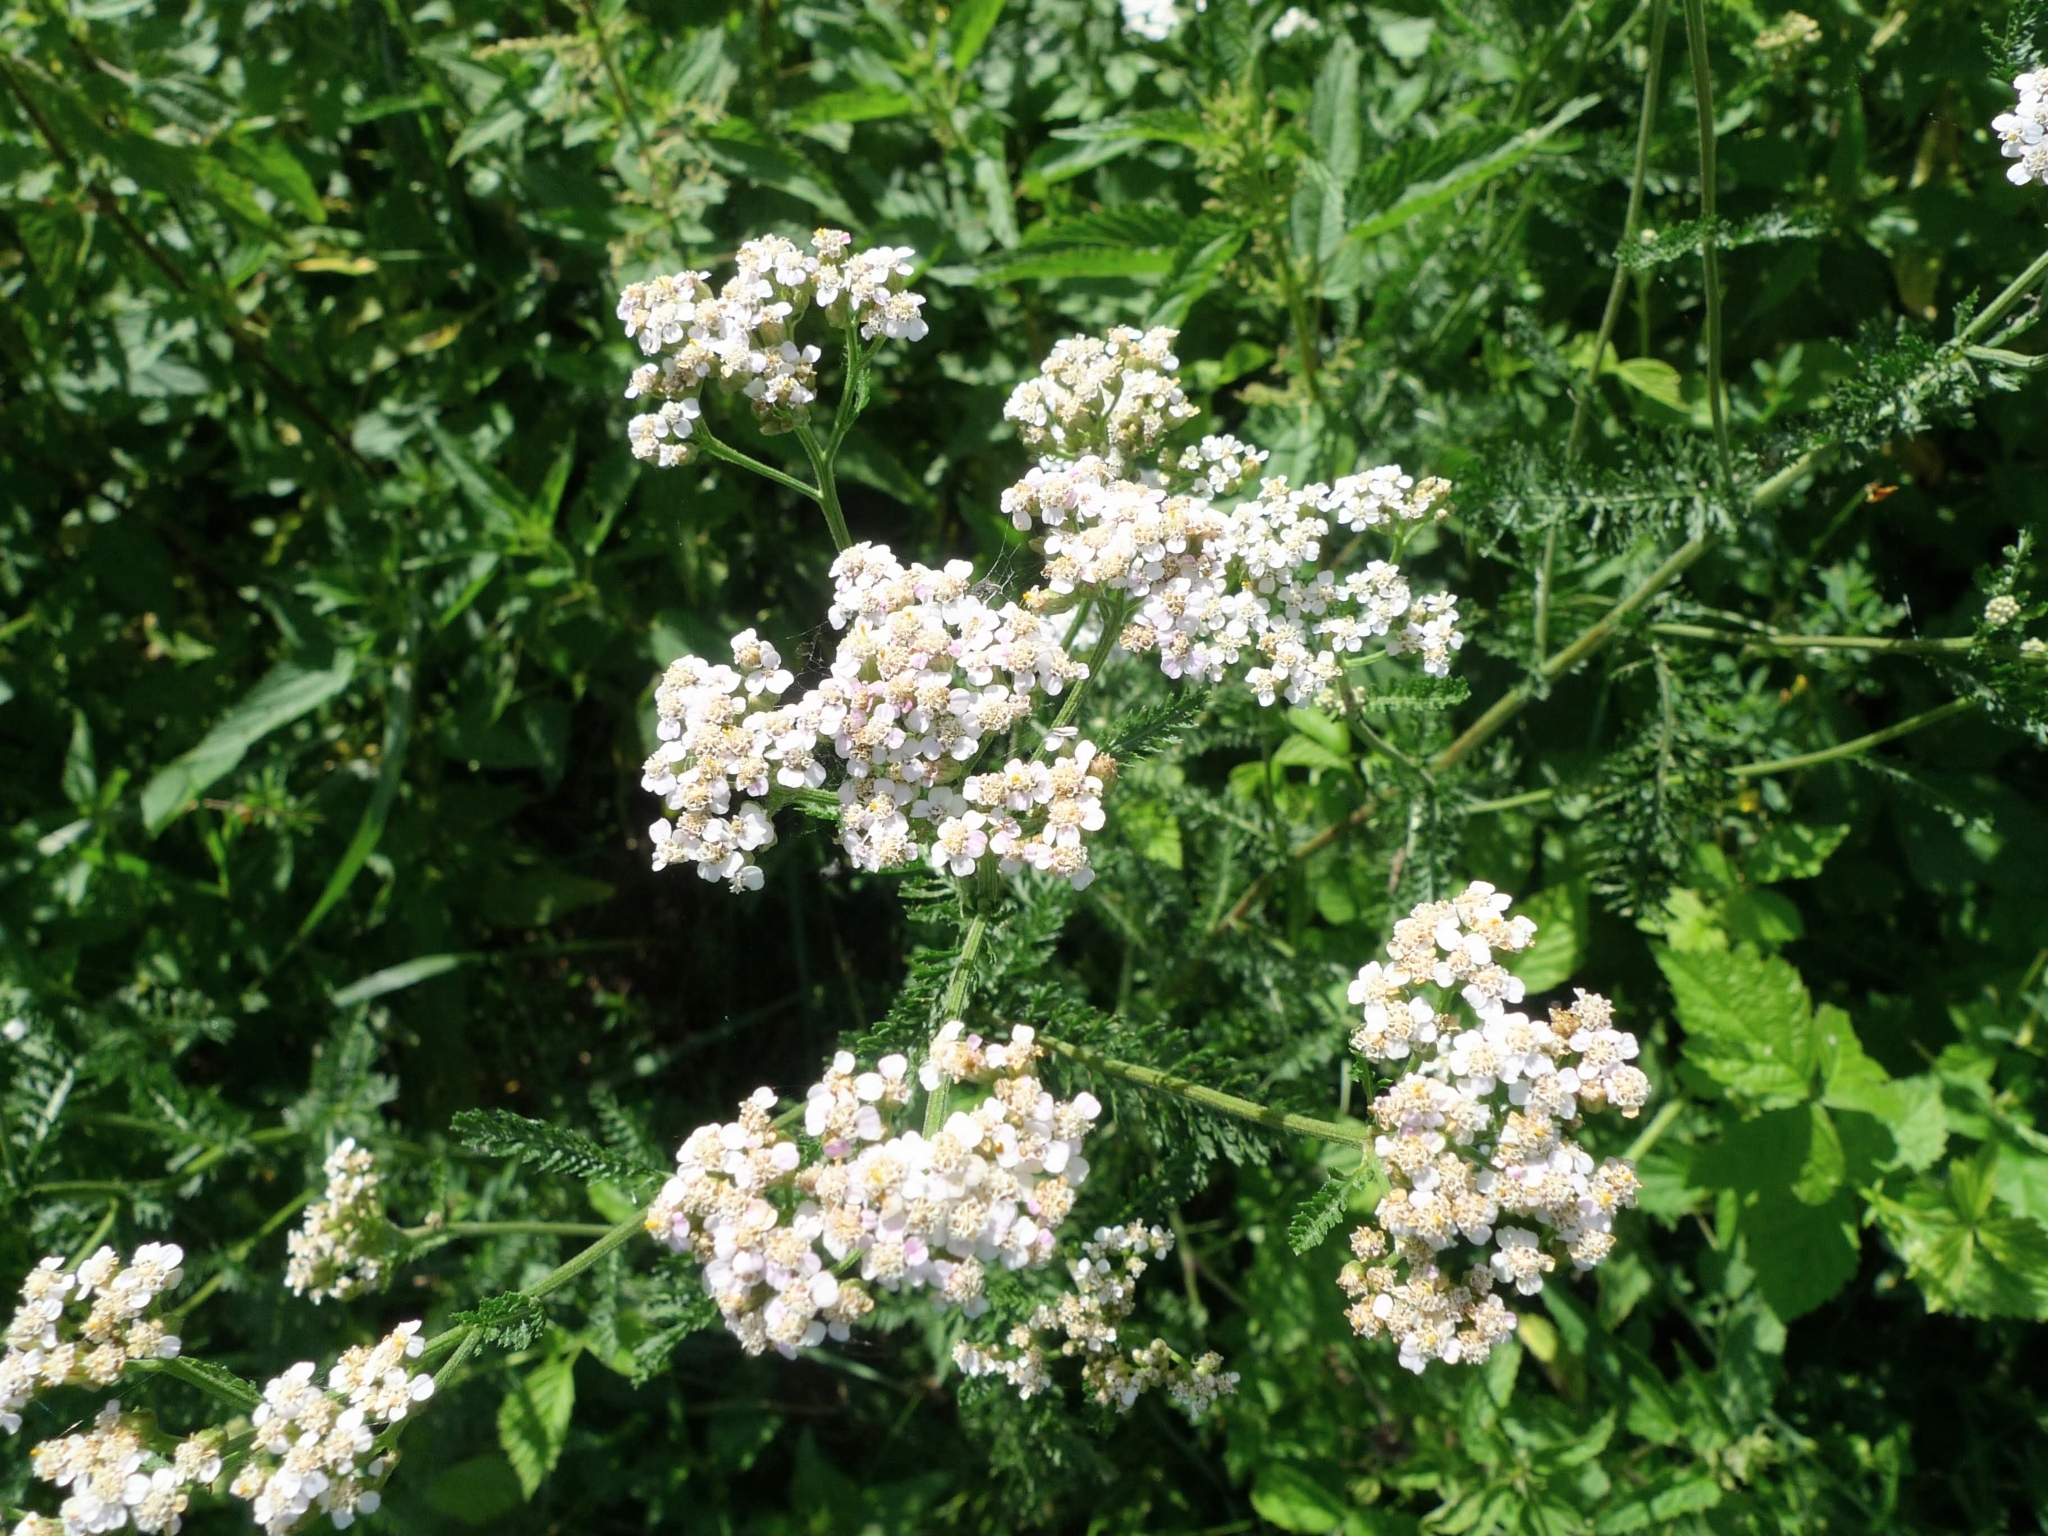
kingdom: Plantae
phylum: Tracheophyta
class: Magnoliopsida
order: Asterales
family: Asteraceae
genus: Achillea
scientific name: Achillea millefolium
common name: Yarrow
